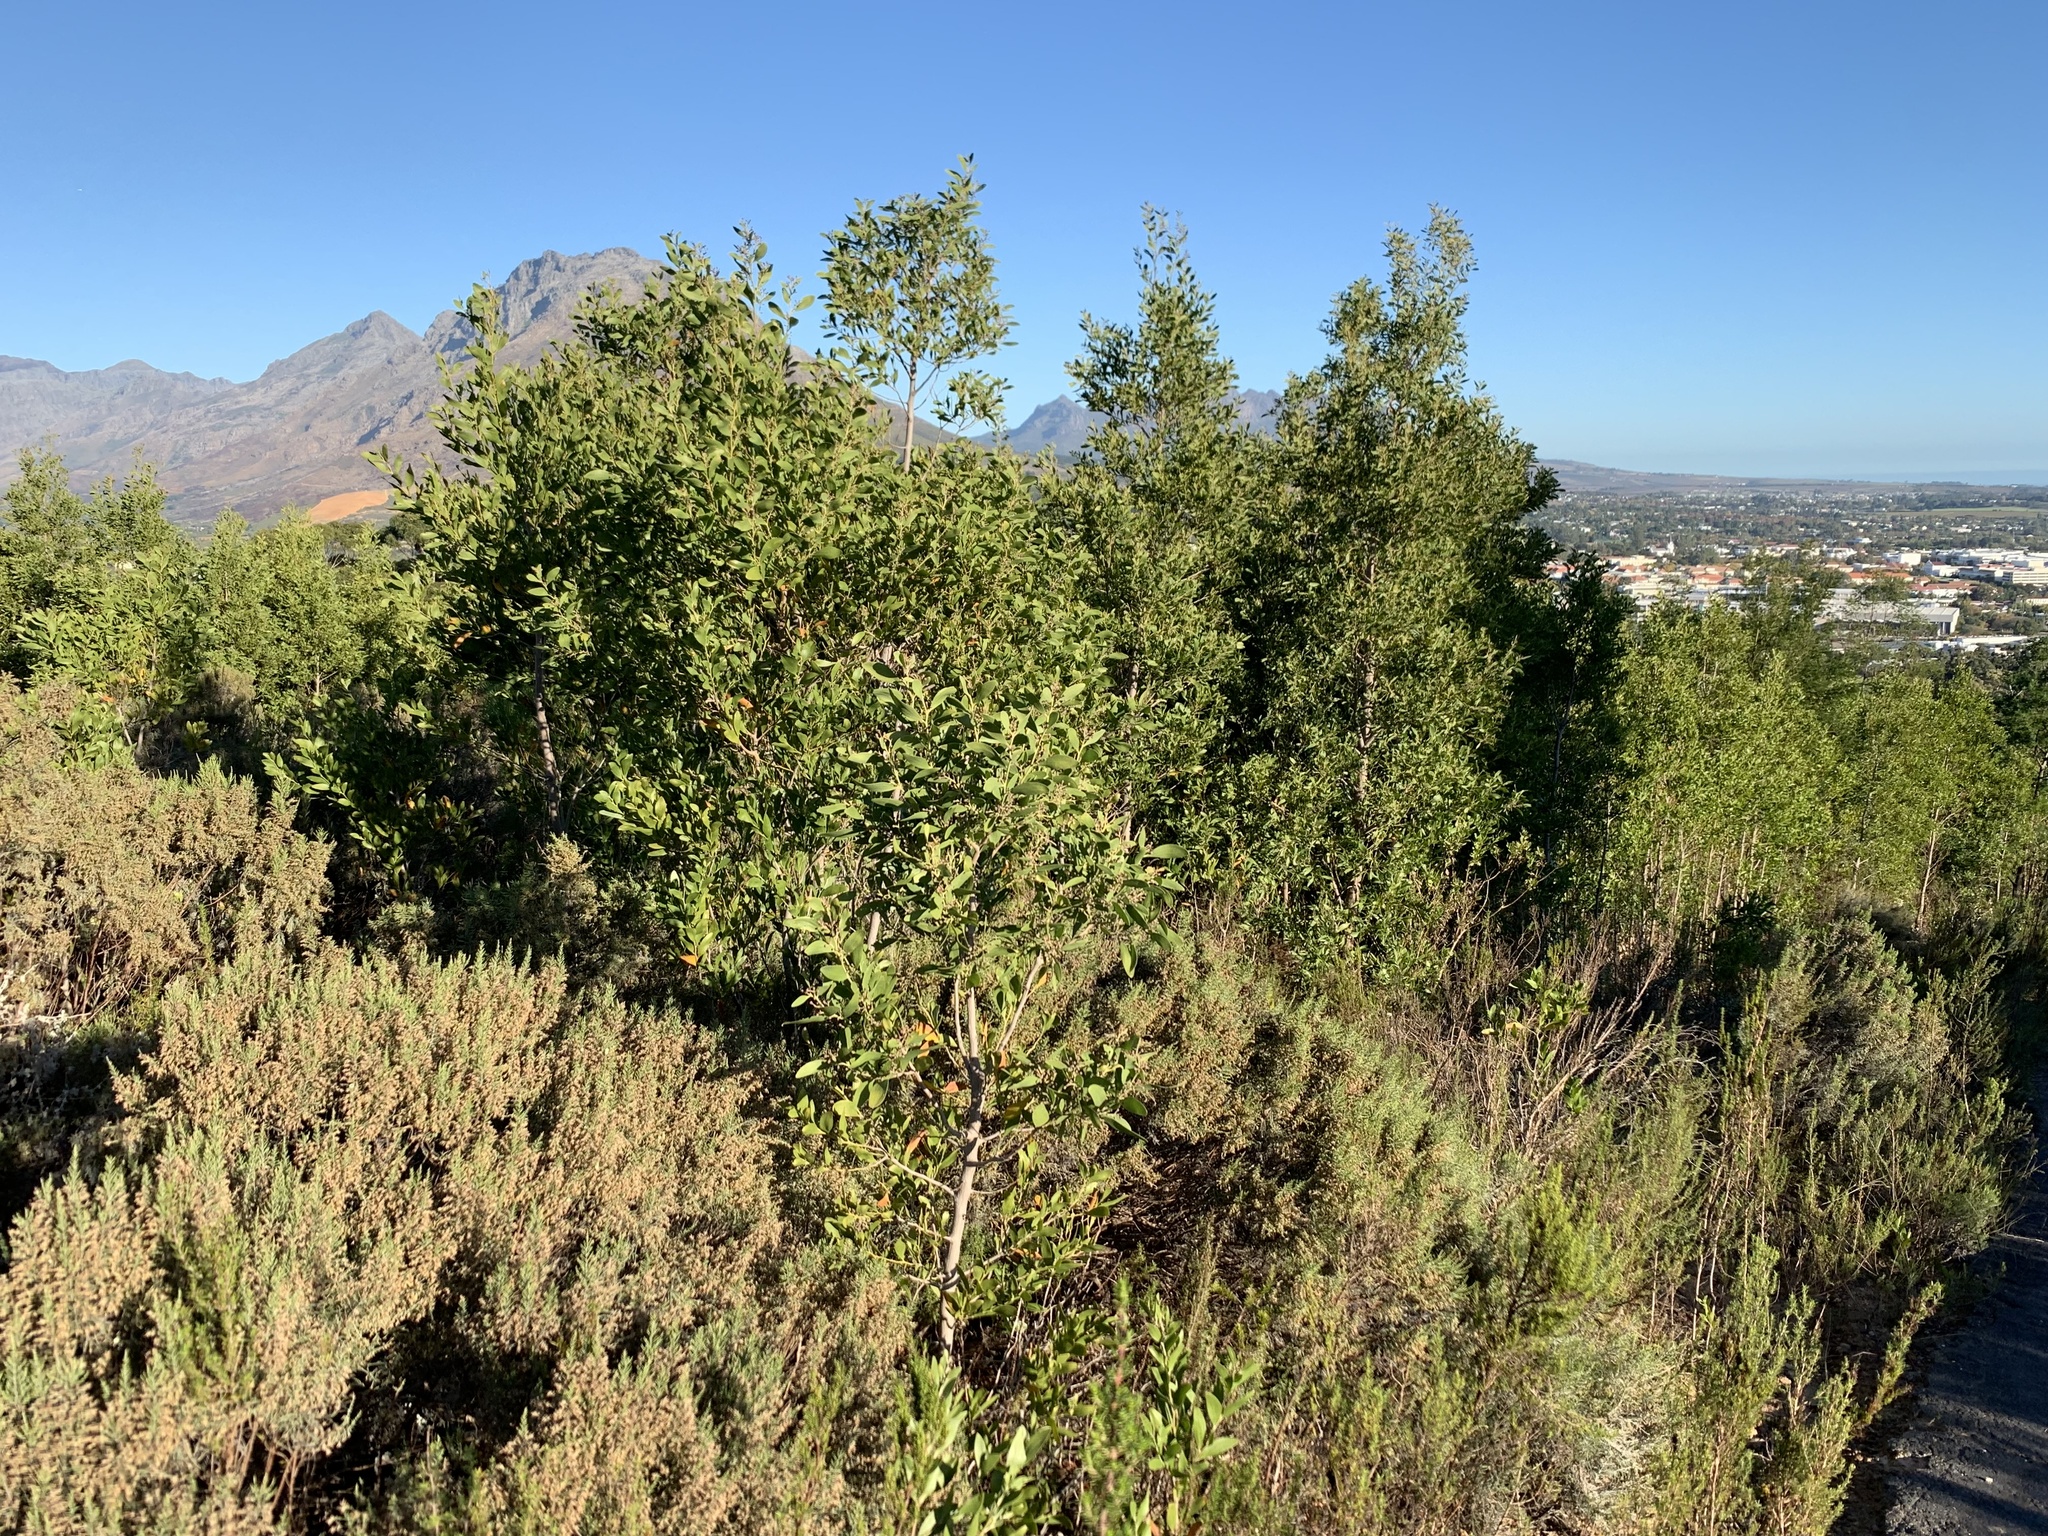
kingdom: Plantae
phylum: Tracheophyta
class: Magnoliopsida
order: Fabales
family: Fabaceae
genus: Acacia
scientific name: Acacia melanoxylon
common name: Blackwood
